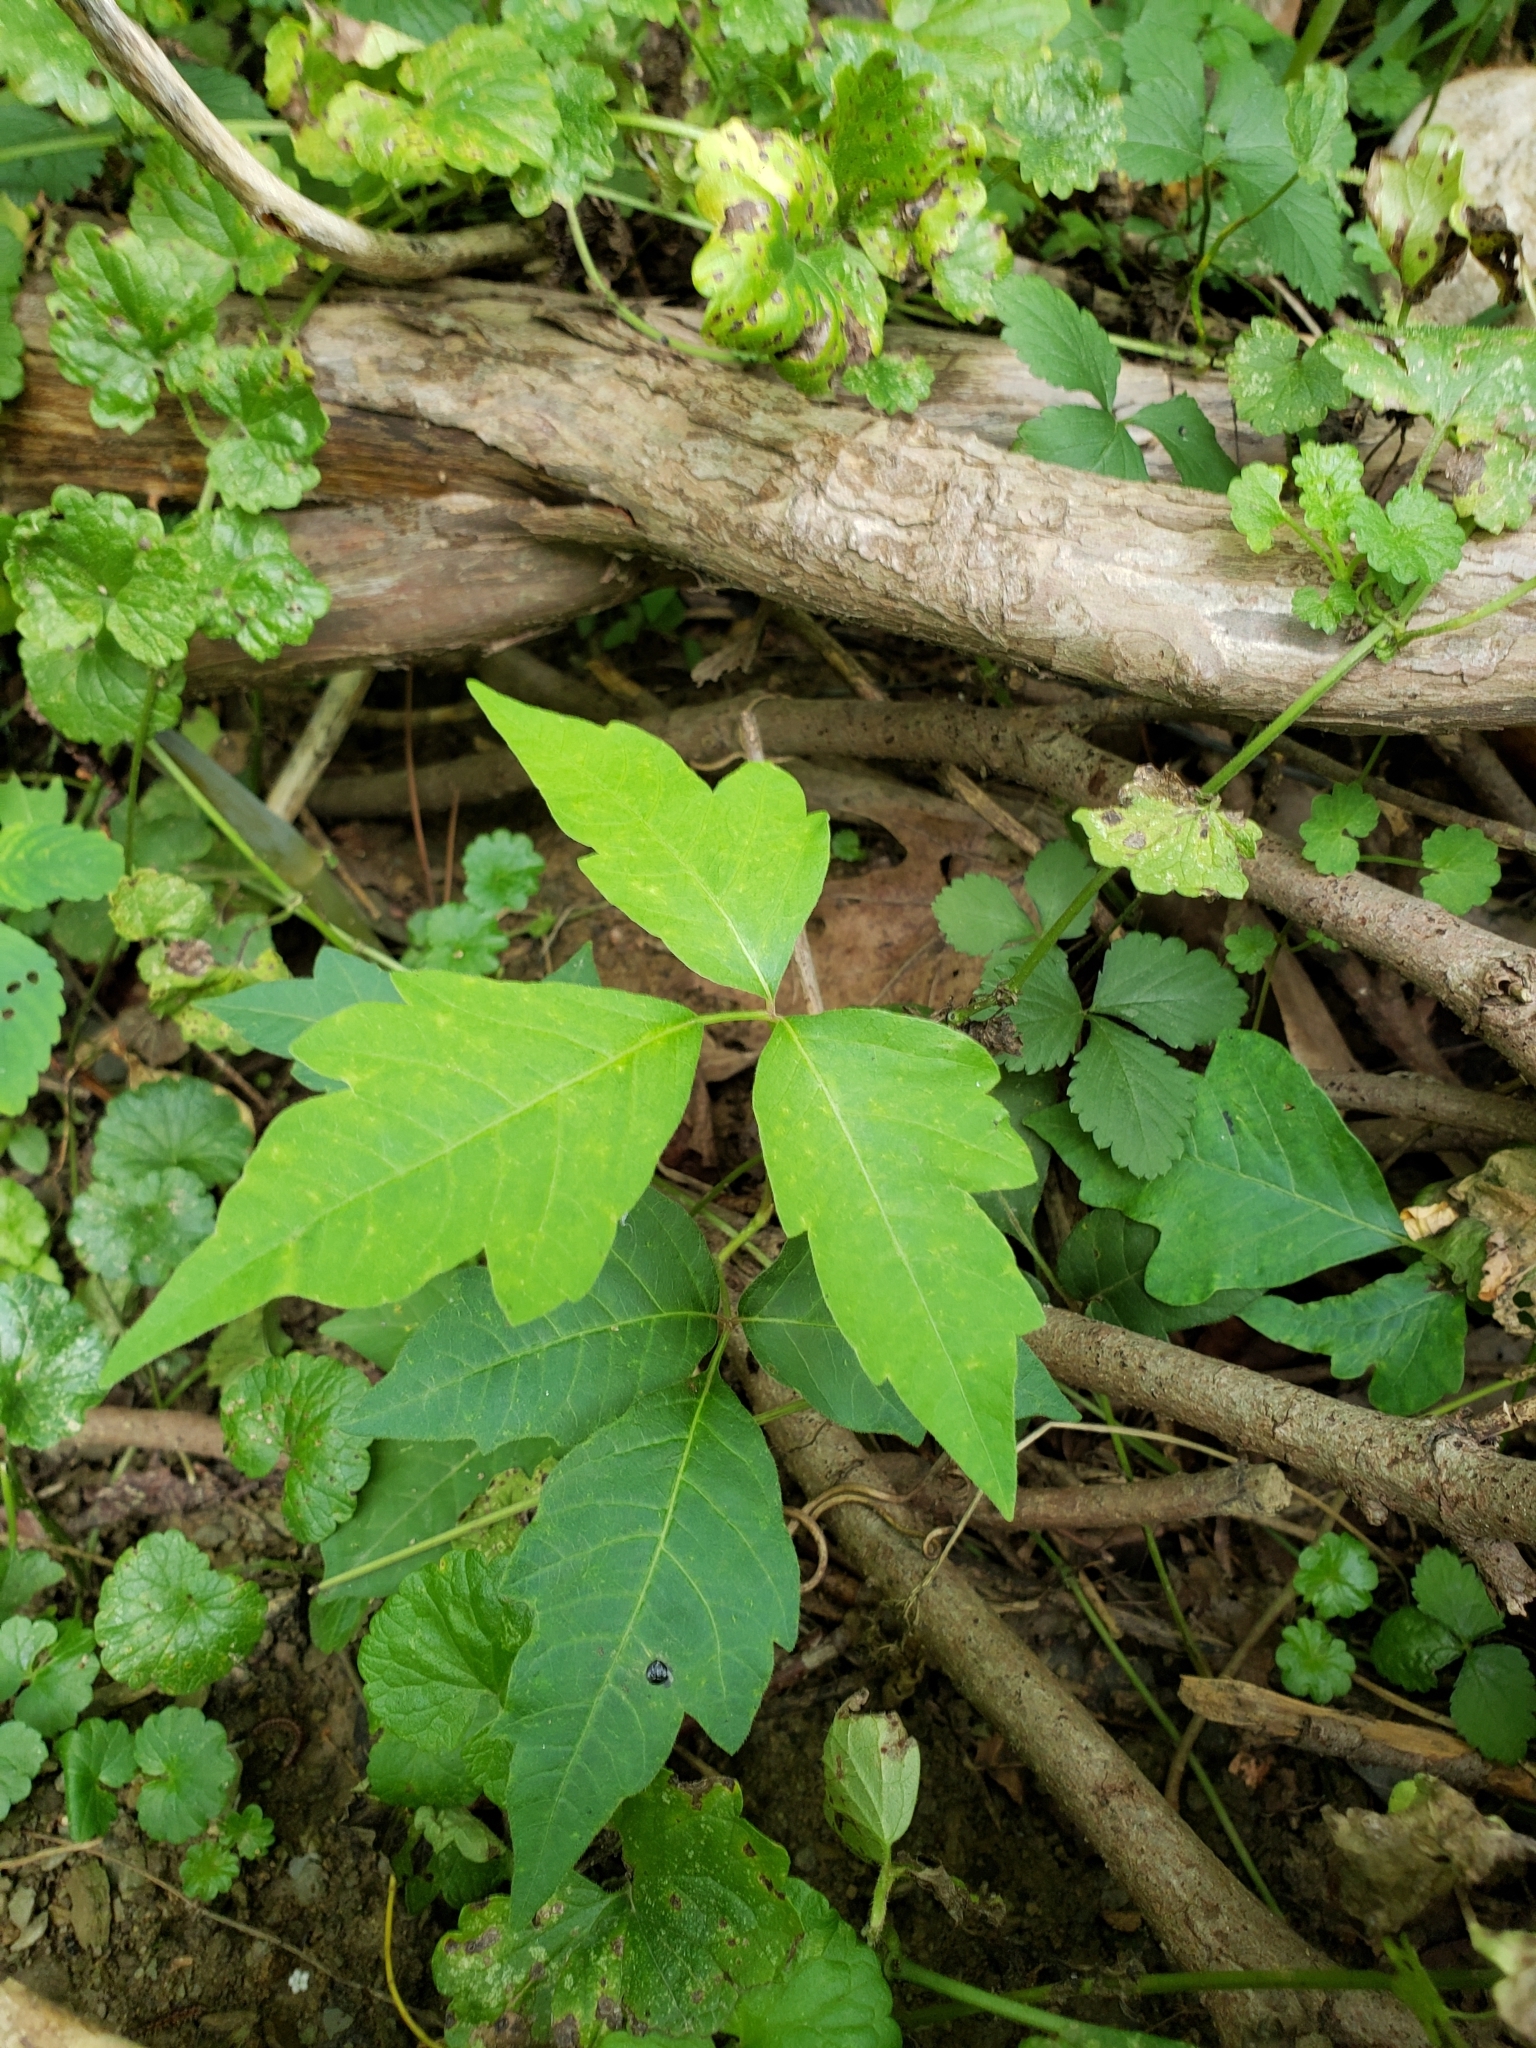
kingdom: Plantae
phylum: Tracheophyta
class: Magnoliopsida
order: Sapindales
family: Anacardiaceae
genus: Toxicodendron
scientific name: Toxicodendron radicans
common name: Poison ivy
